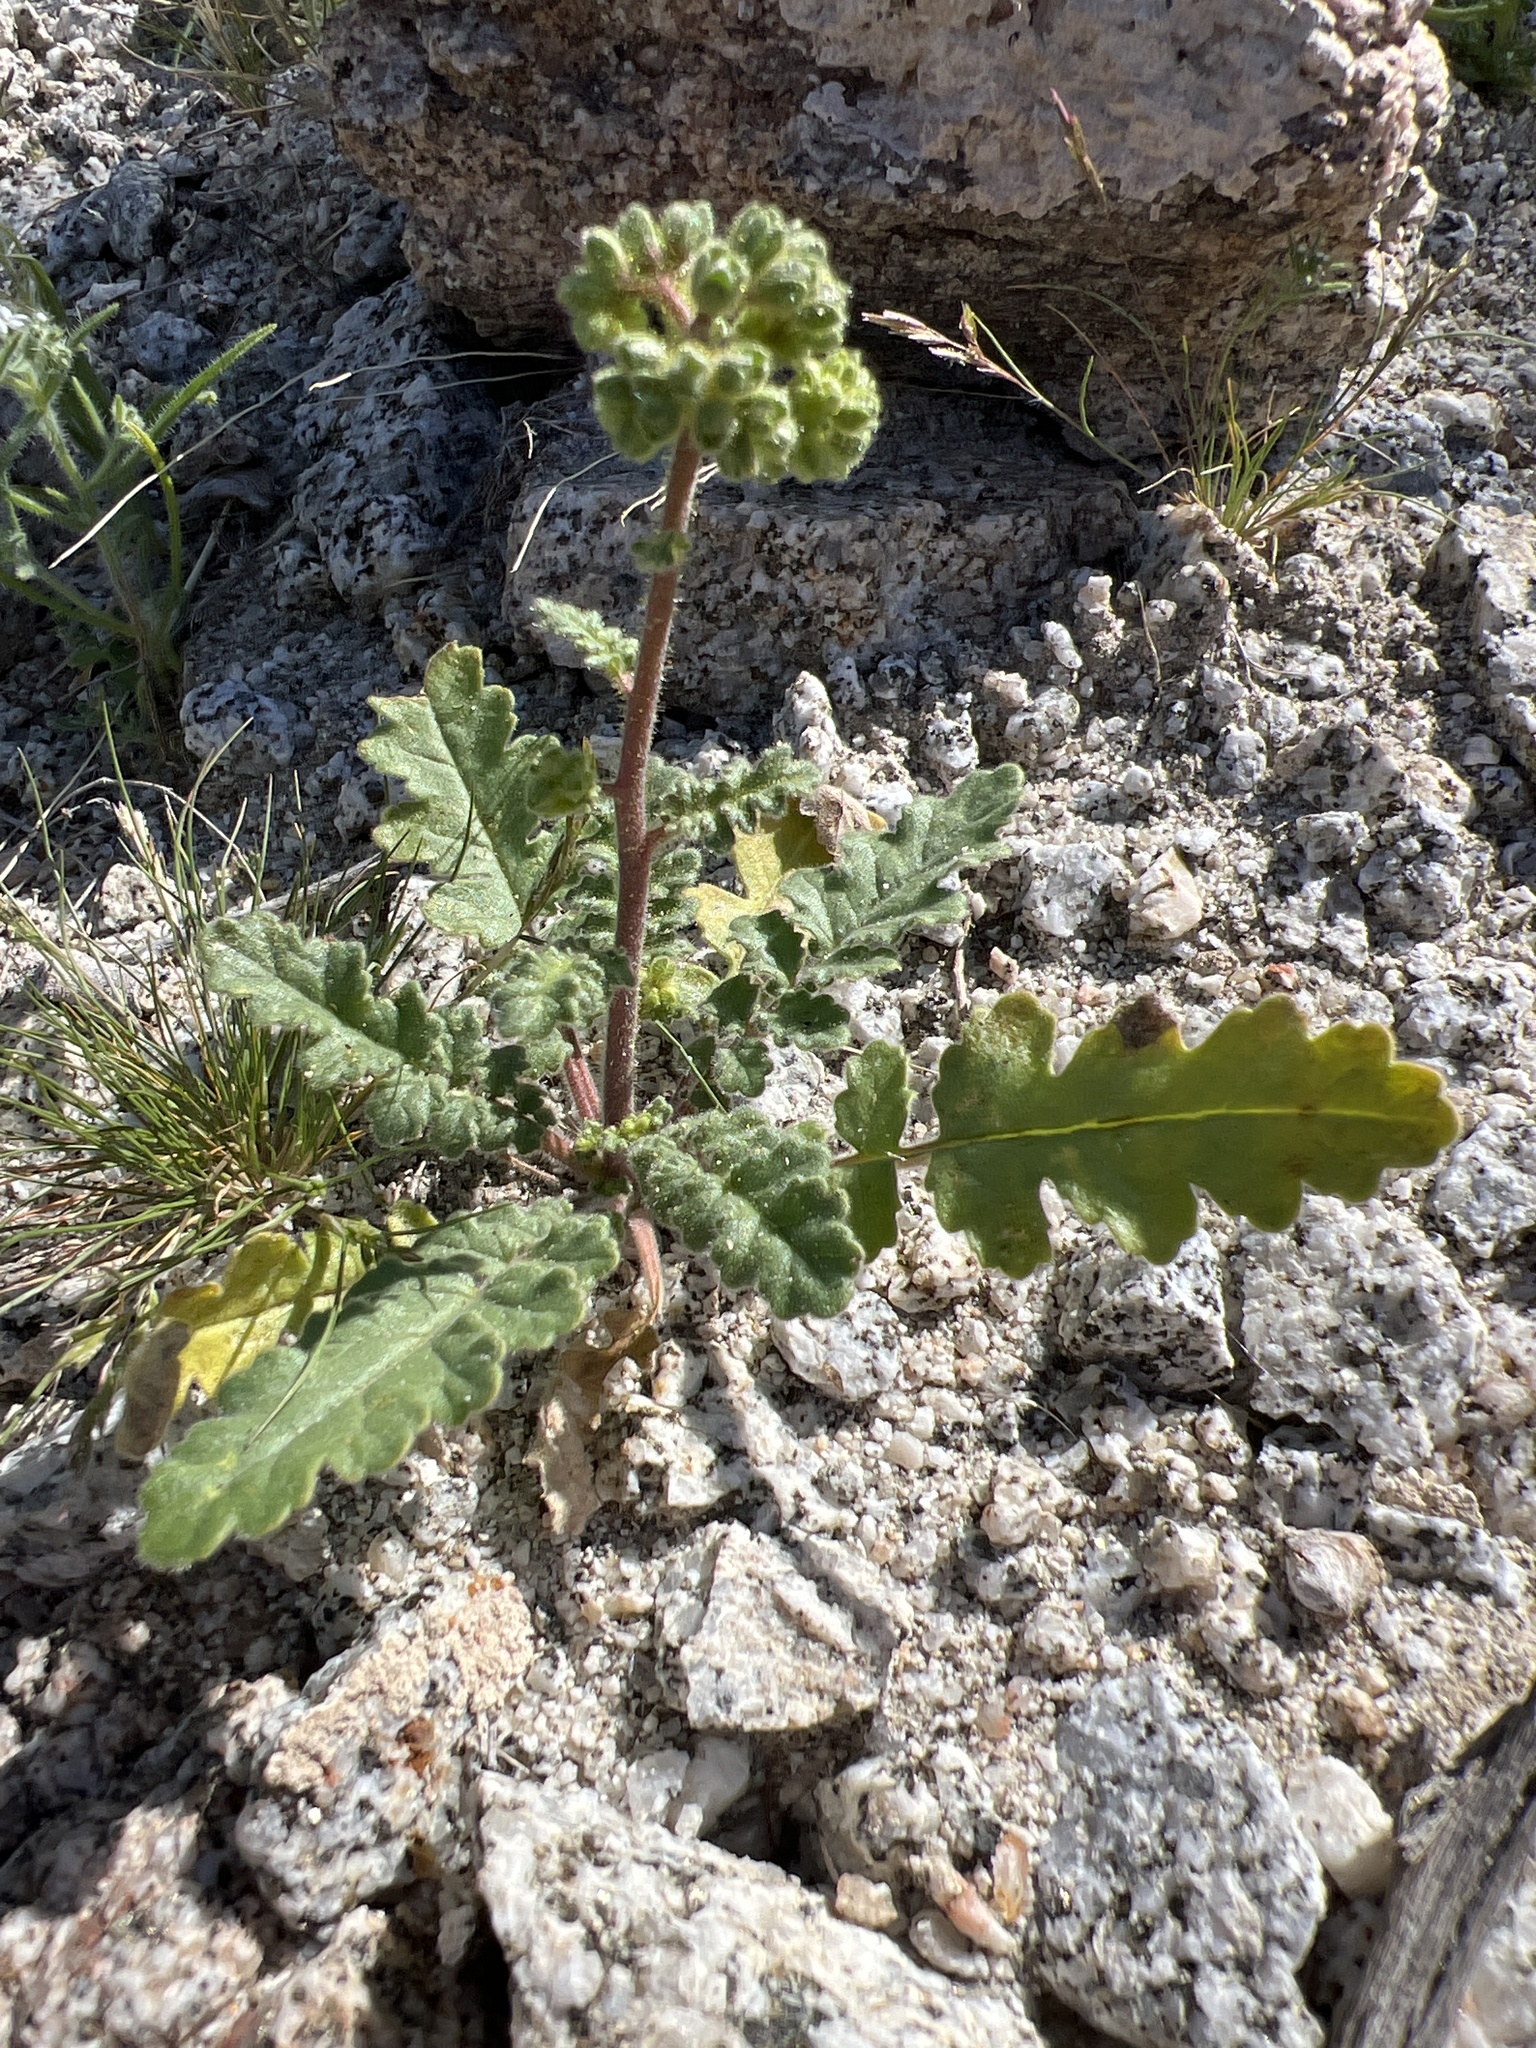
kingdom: Plantae
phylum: Tracheophyta
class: Magnoliopsida
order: Boraginales
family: Hydrophyllaceae
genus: Phacelia
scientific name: Phacelia minutiflora
